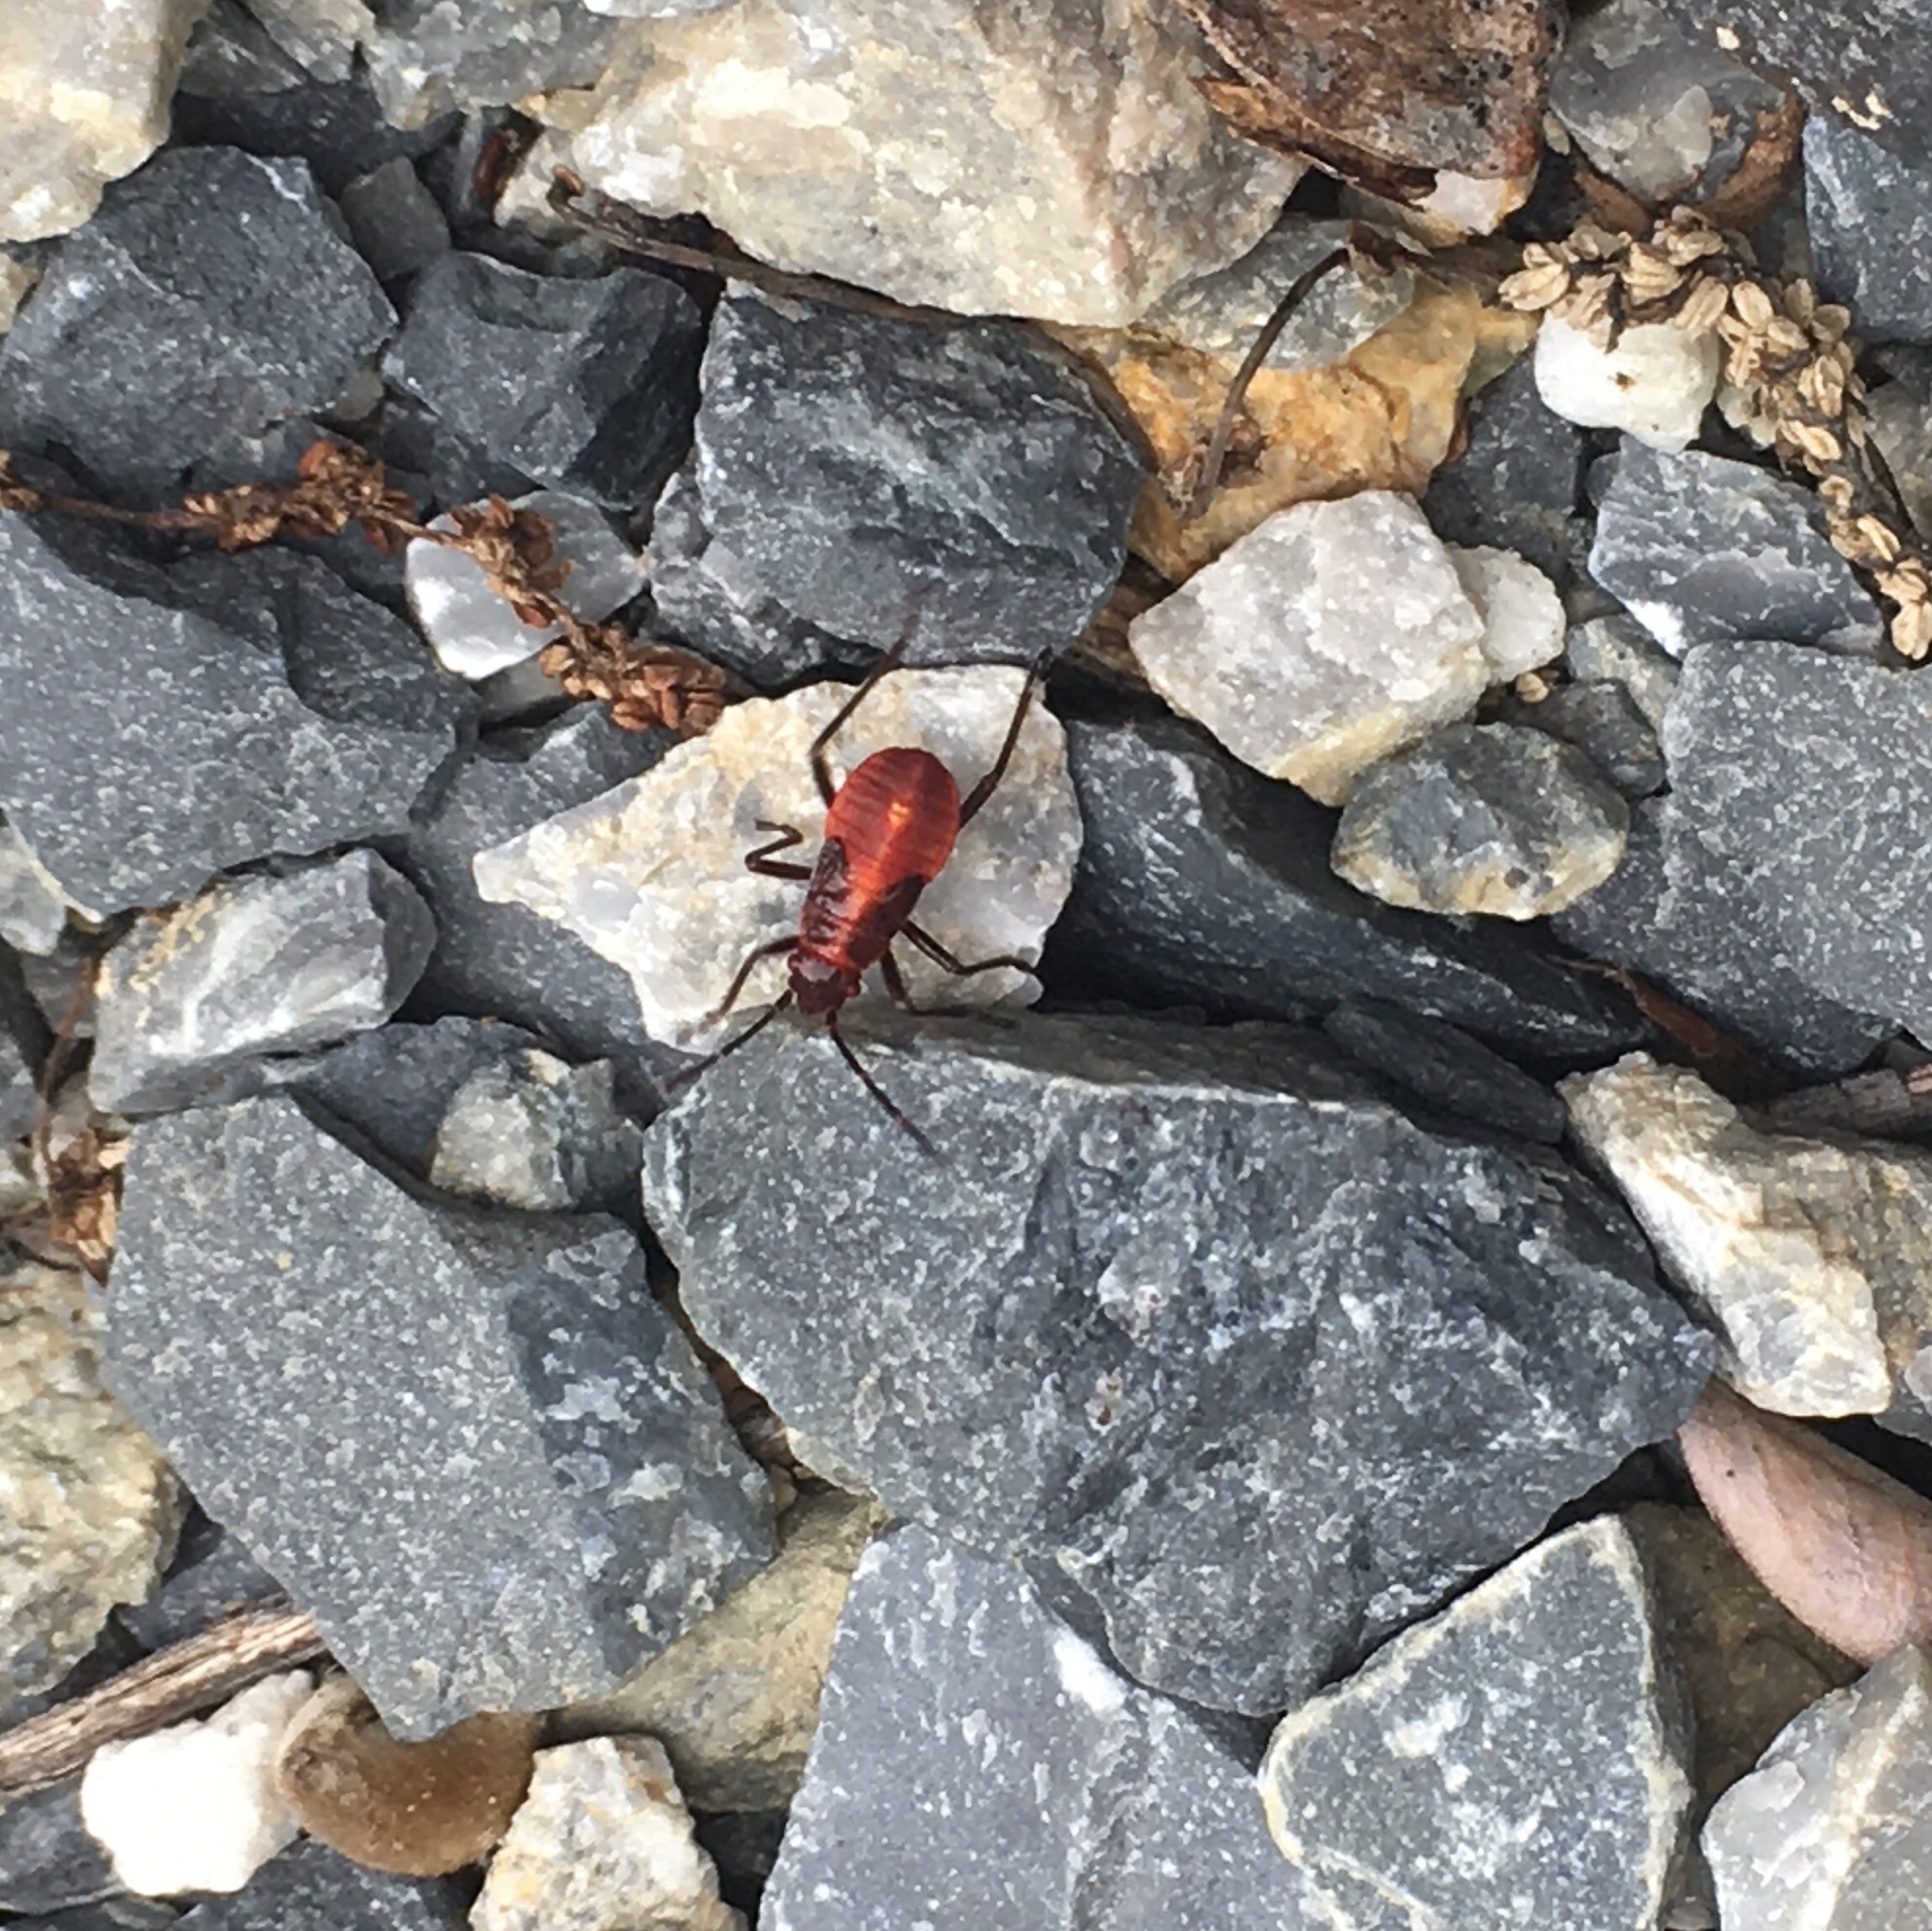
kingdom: Animalia
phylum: Arthropoda
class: Insecta
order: Hemiptera
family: Rhopalidae
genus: Boisea
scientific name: Boisea trivittata
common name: Boxelder bug
